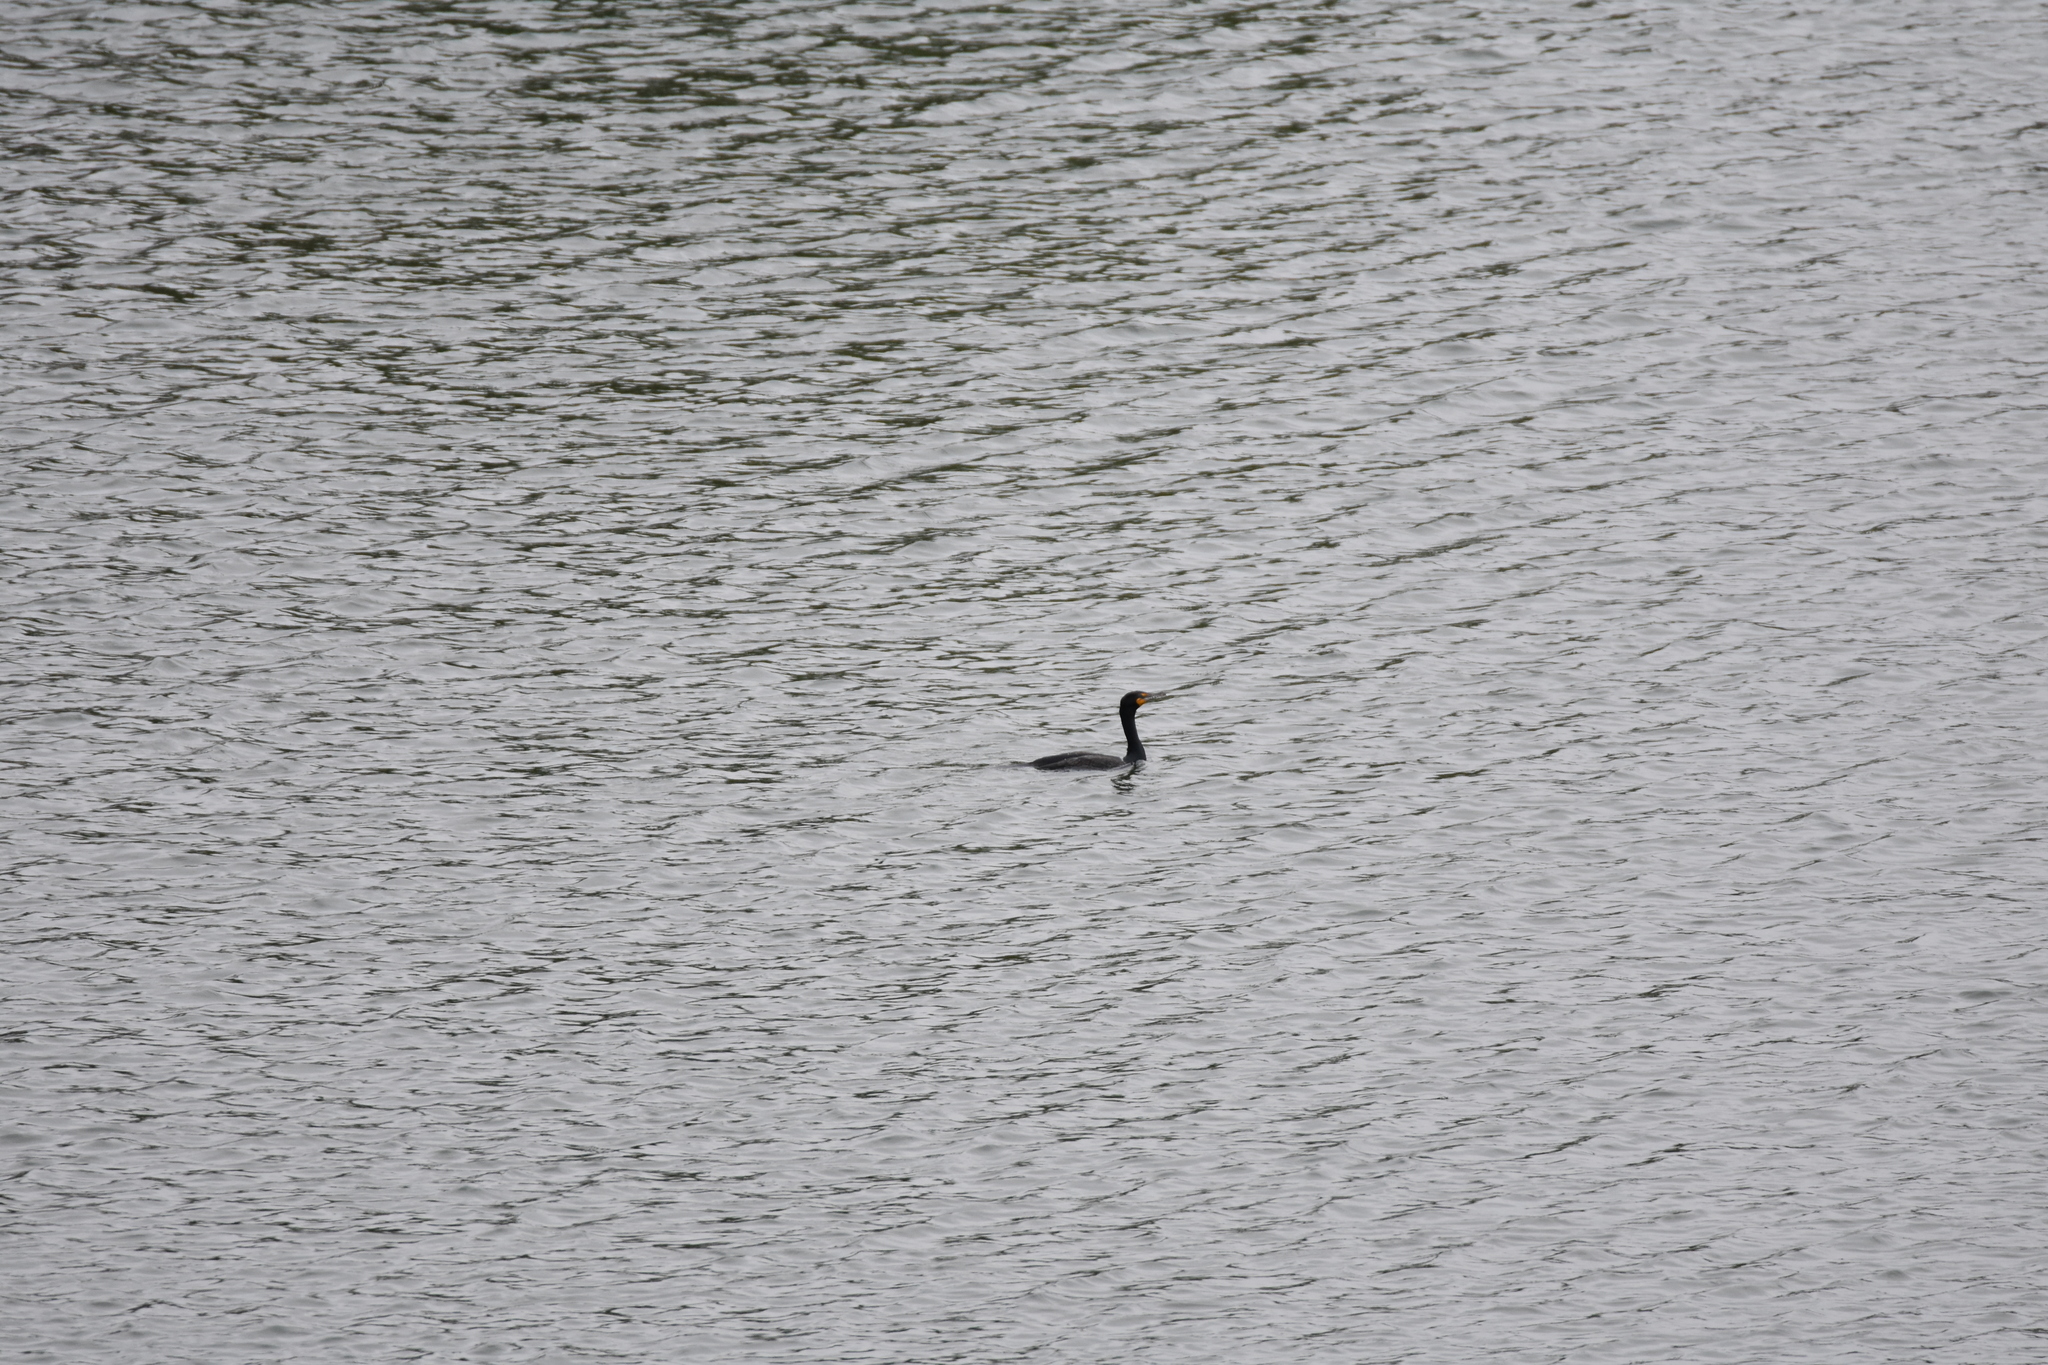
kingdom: Animalia
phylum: Chordata
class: Aves
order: Suliformes
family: Phalacrocoracidae
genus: Phalacrocorax
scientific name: Phalacrocorax auritus
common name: Double-crested cormorant
